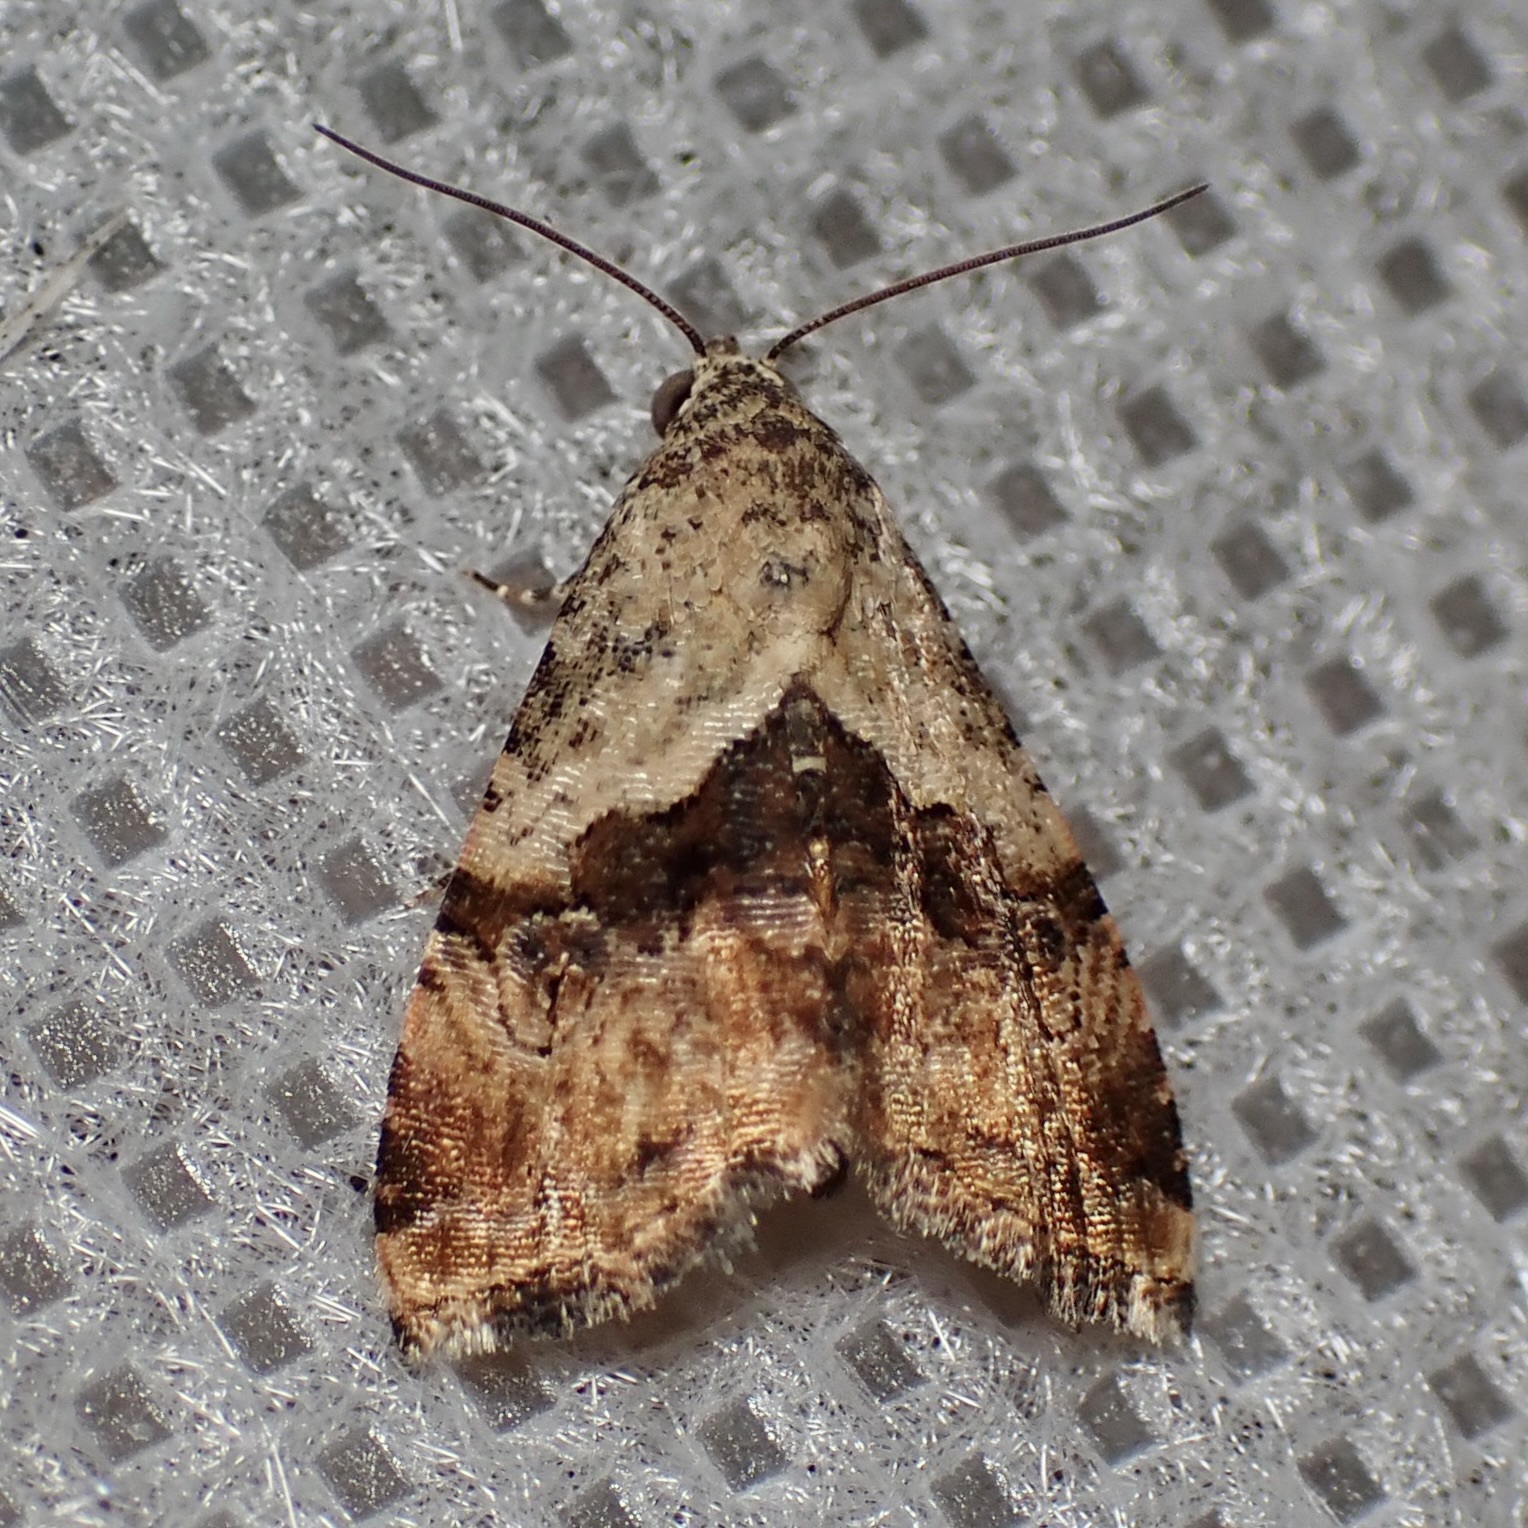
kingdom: Animalia
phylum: Arthropoda
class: Insecta
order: Lepidoptera
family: Noctuidae
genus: Tripudia
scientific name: Tripudia limbatus
